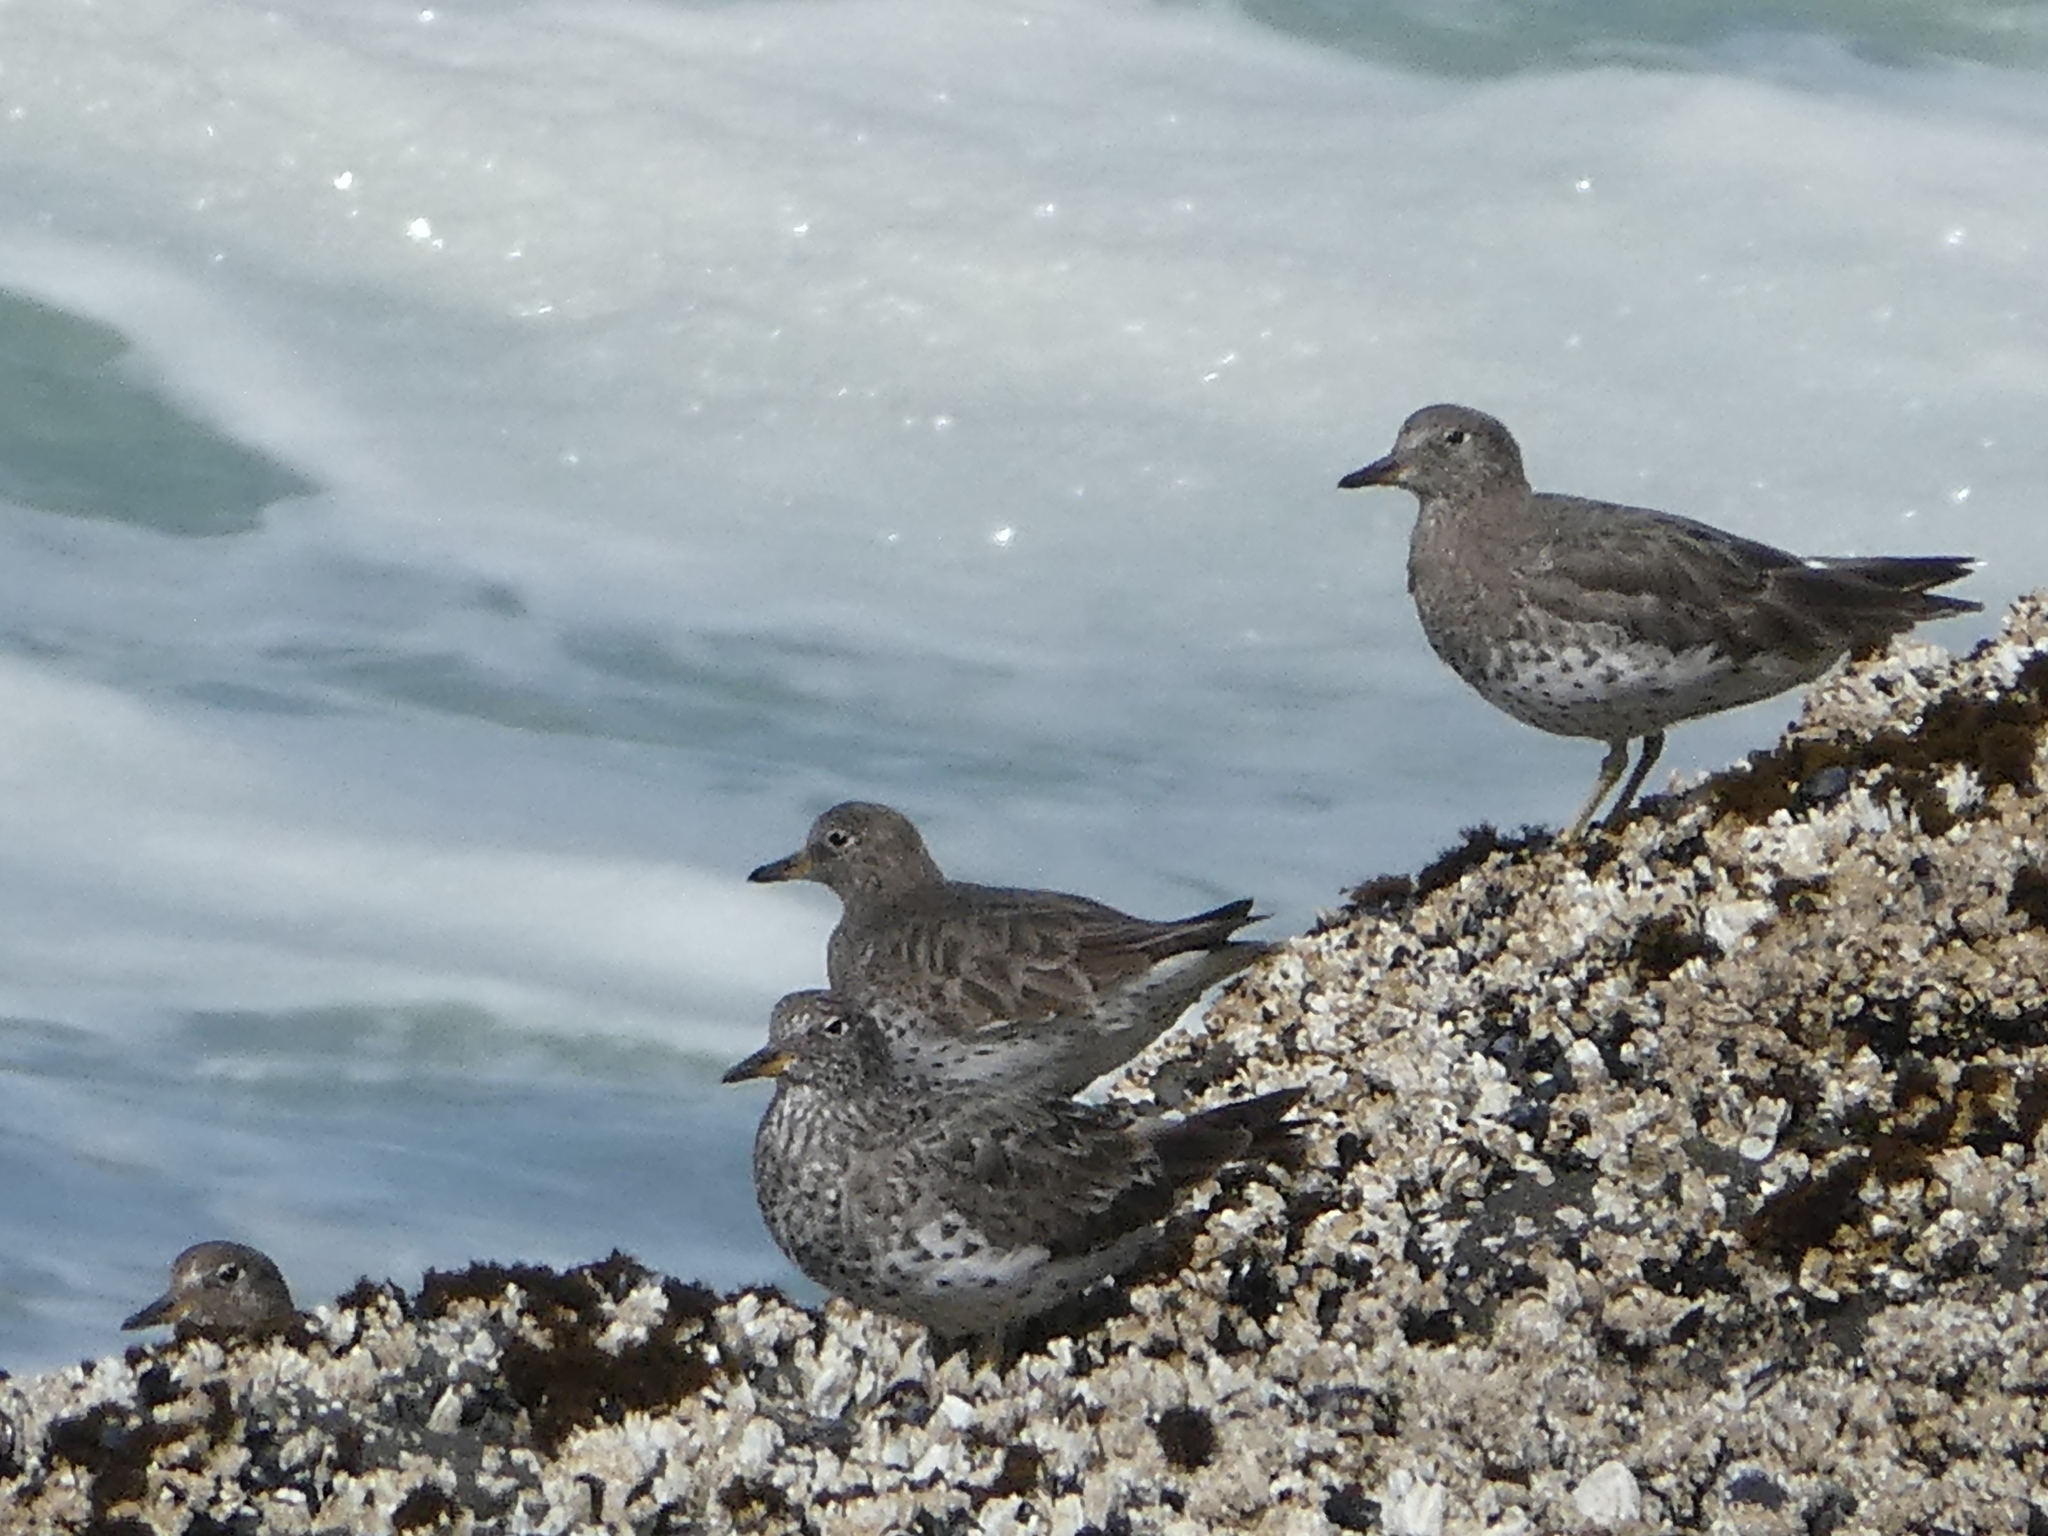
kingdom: Animalia
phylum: Chordata
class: Aves
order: Charadriiformes
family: Scolopacidae
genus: Calidris
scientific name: Calidris virgata
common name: Surfbird
